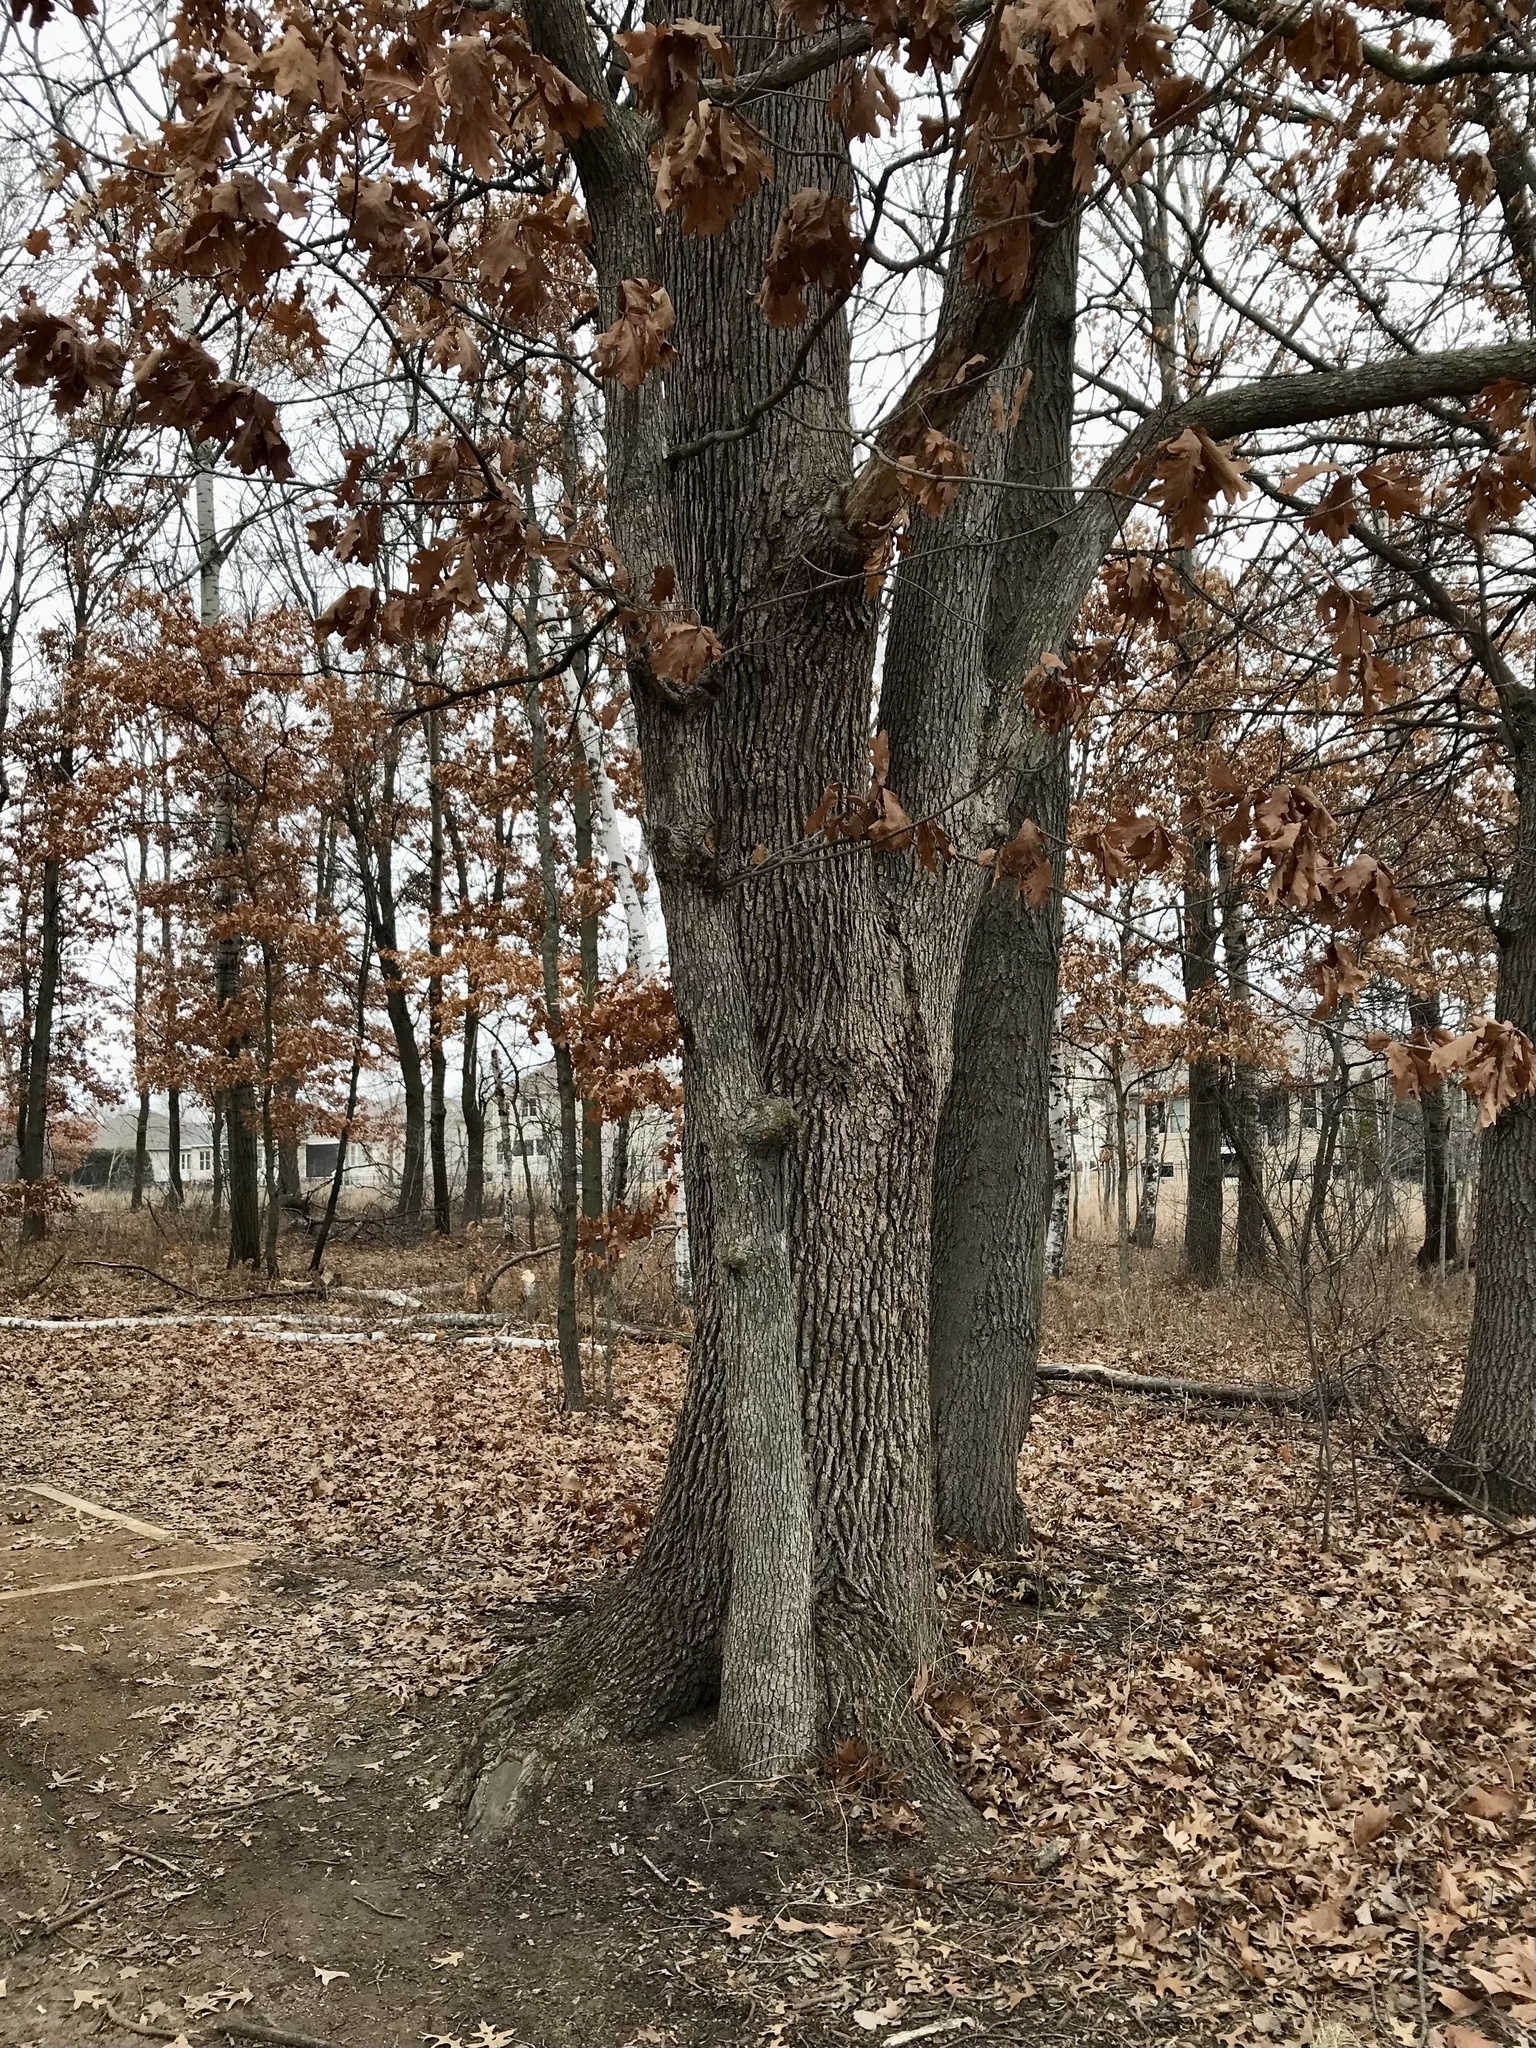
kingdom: Plantae
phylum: Tracheophyta
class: Magnoliopsida
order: Fagales
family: Fagaceae
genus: Quercus
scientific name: Quercus alba
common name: White oak
